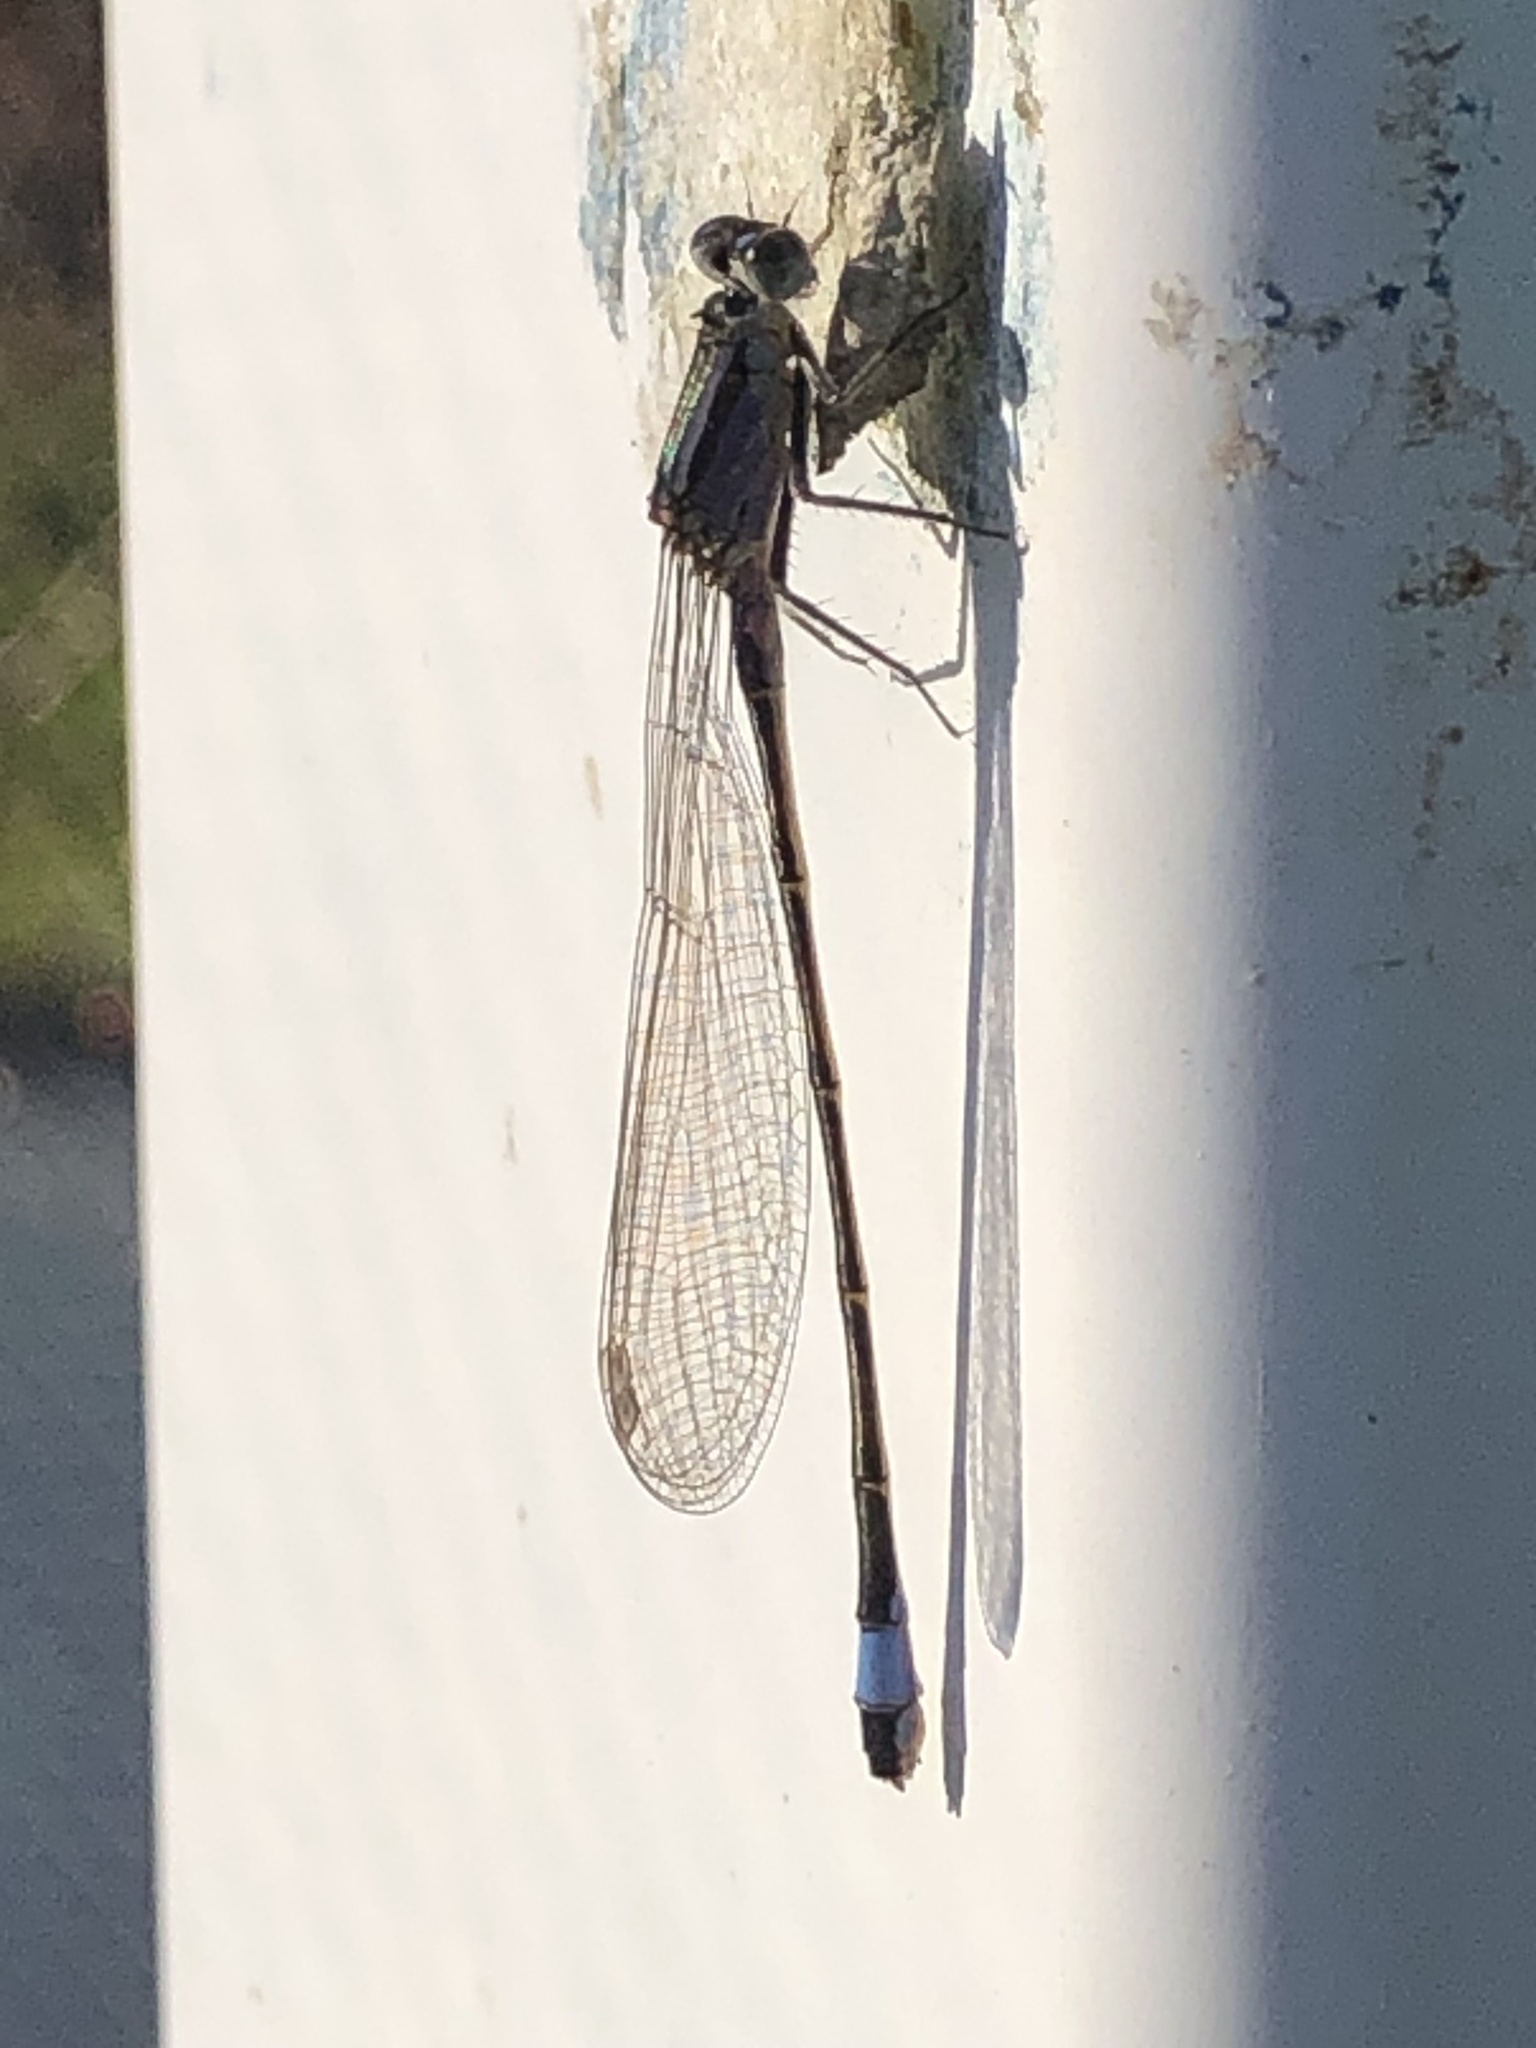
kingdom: Animalia
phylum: Arthropoda
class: Insecta
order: Odonata
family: Coenagrionidae
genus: Ischnura
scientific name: Ischnura elegans
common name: Blue-tailed damselfly
